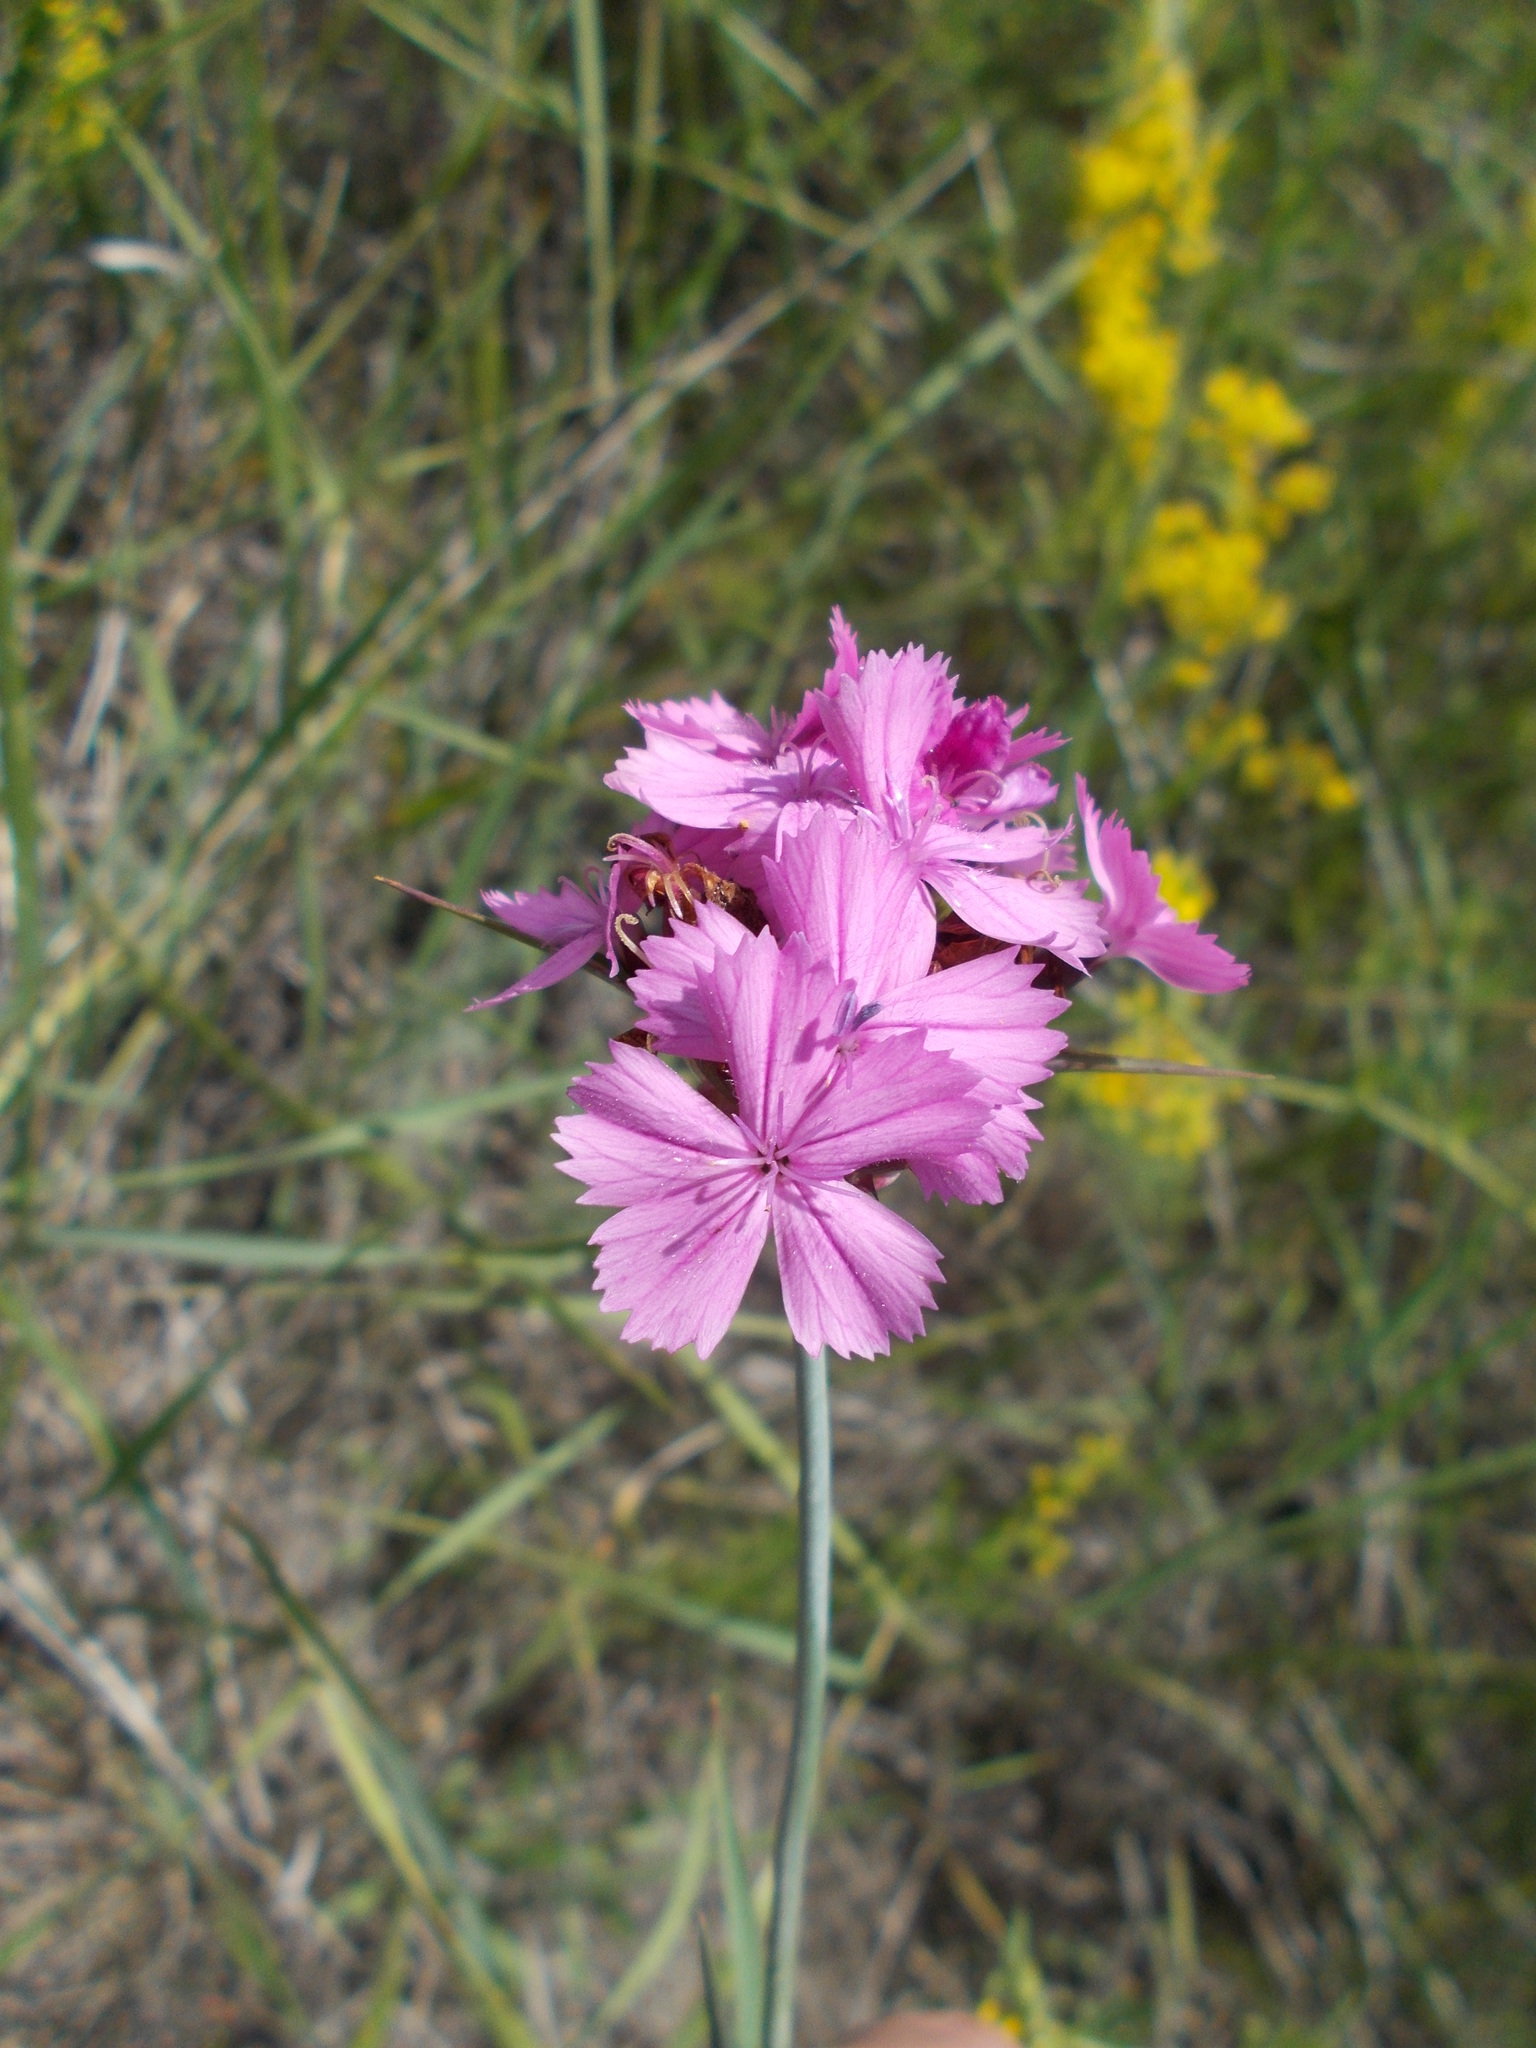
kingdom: Plantae
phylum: Tracheophyta
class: Magnoliopsida
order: Caryophyllales
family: Caryophyllaceae
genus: Dianthus
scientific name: Dianthus capitatus
